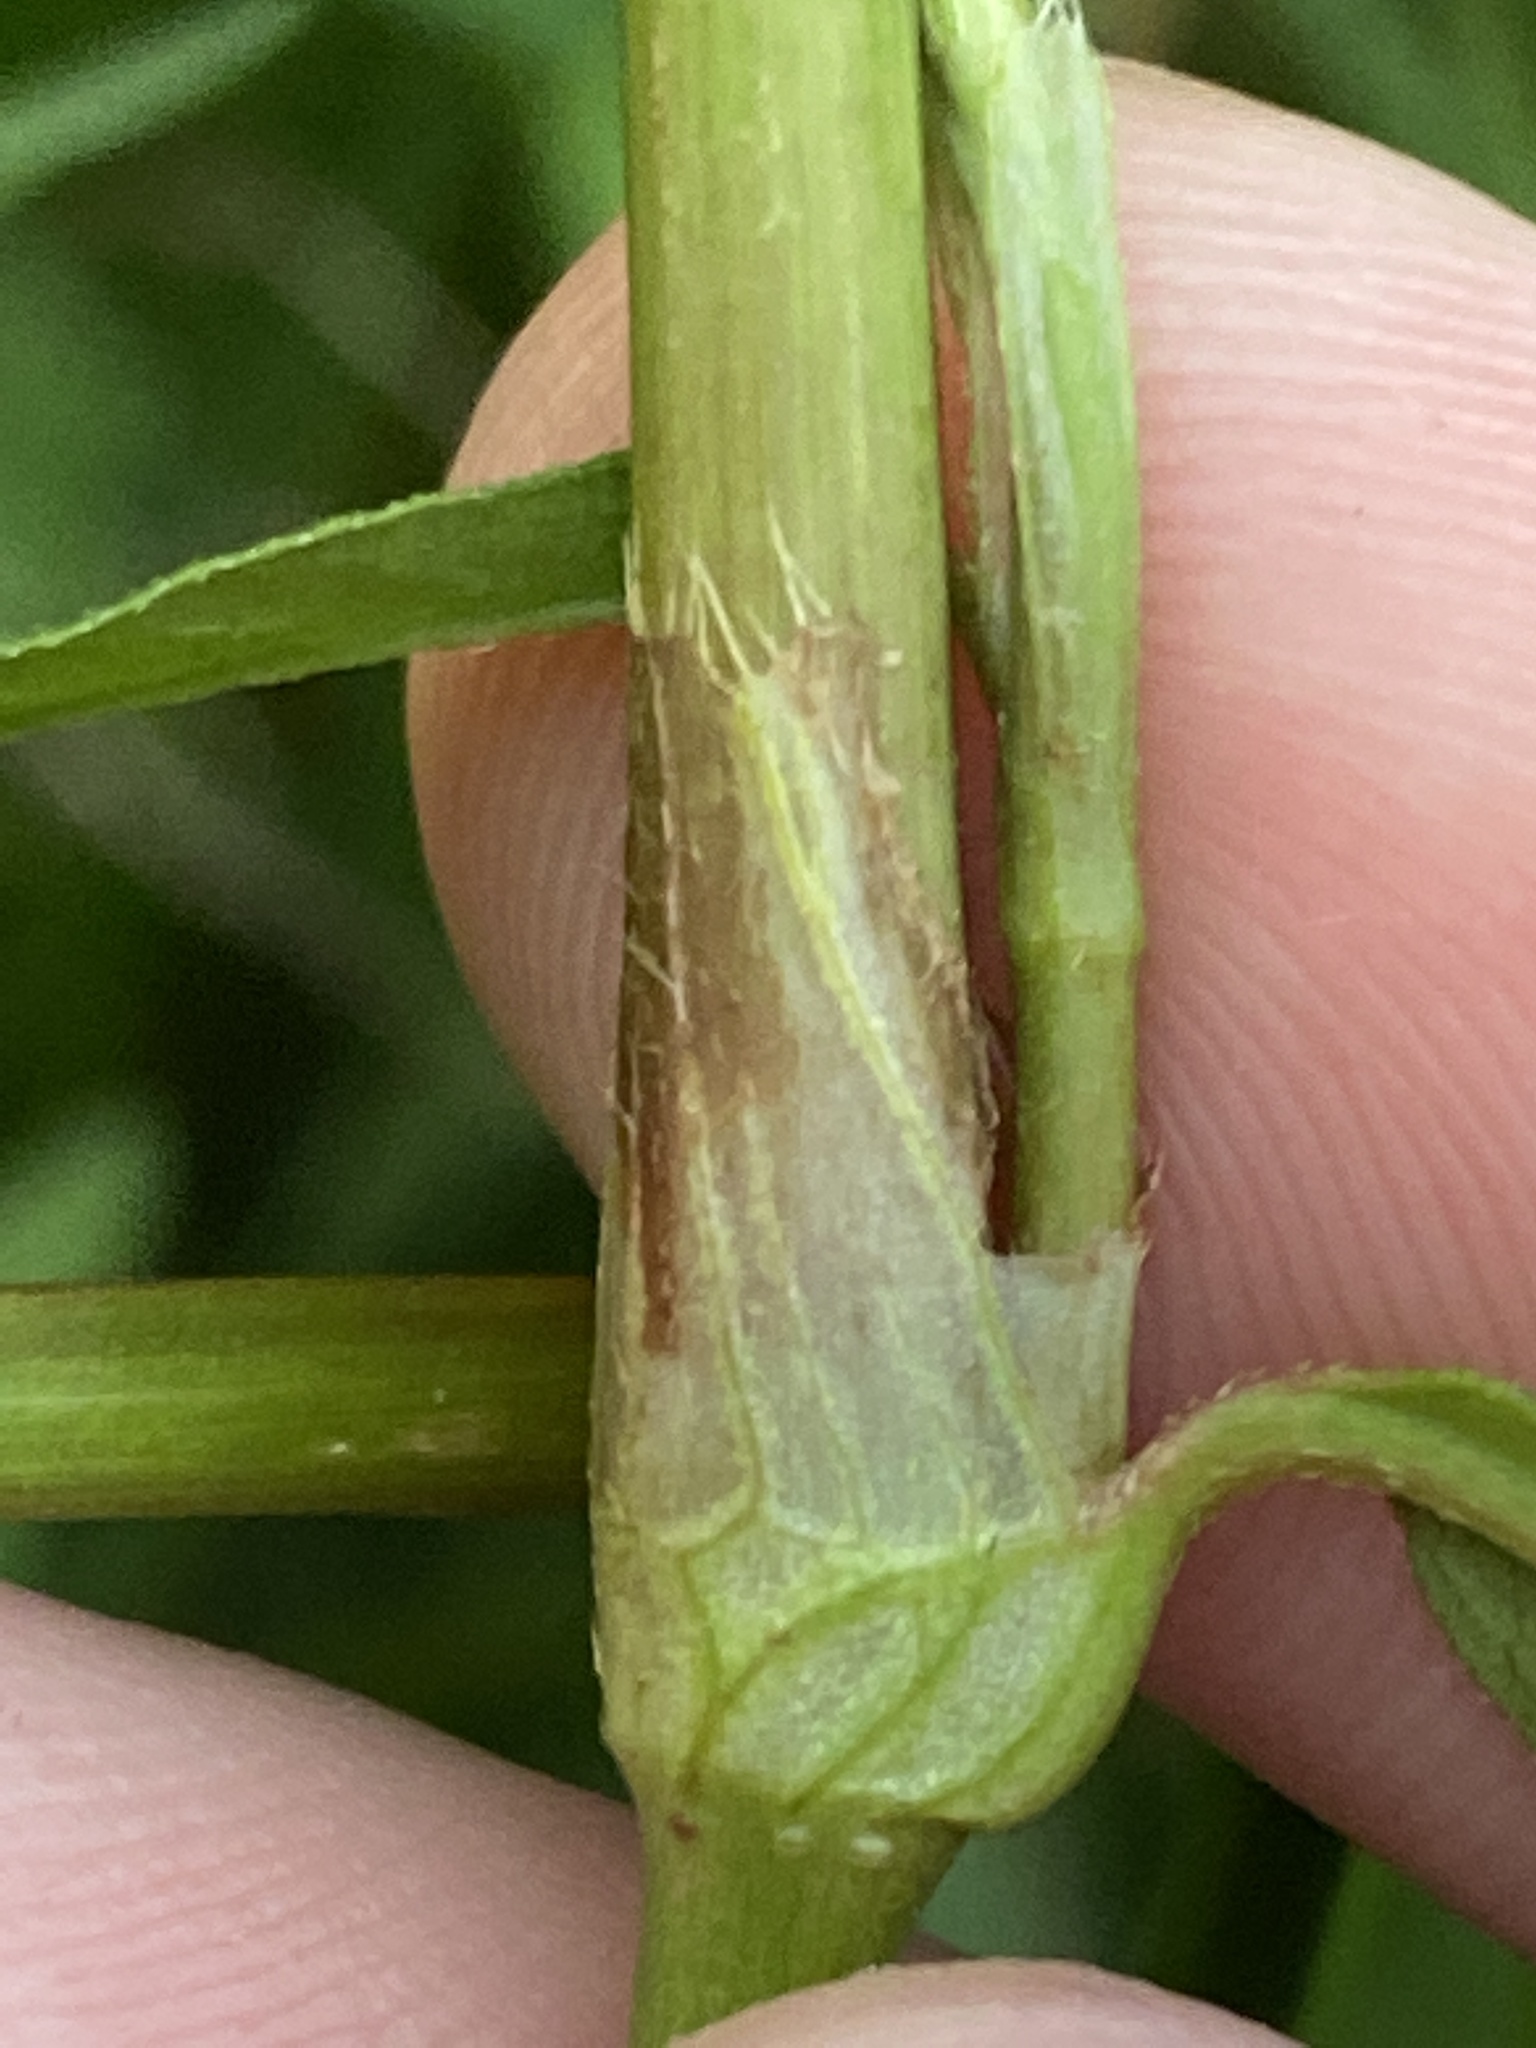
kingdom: Plantae
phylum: Tracheophyta
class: Magnoliopsida
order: Caryophyllales
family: Polygonaceae
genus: Persicaria
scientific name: Persicaria maculosa
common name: Redshank
